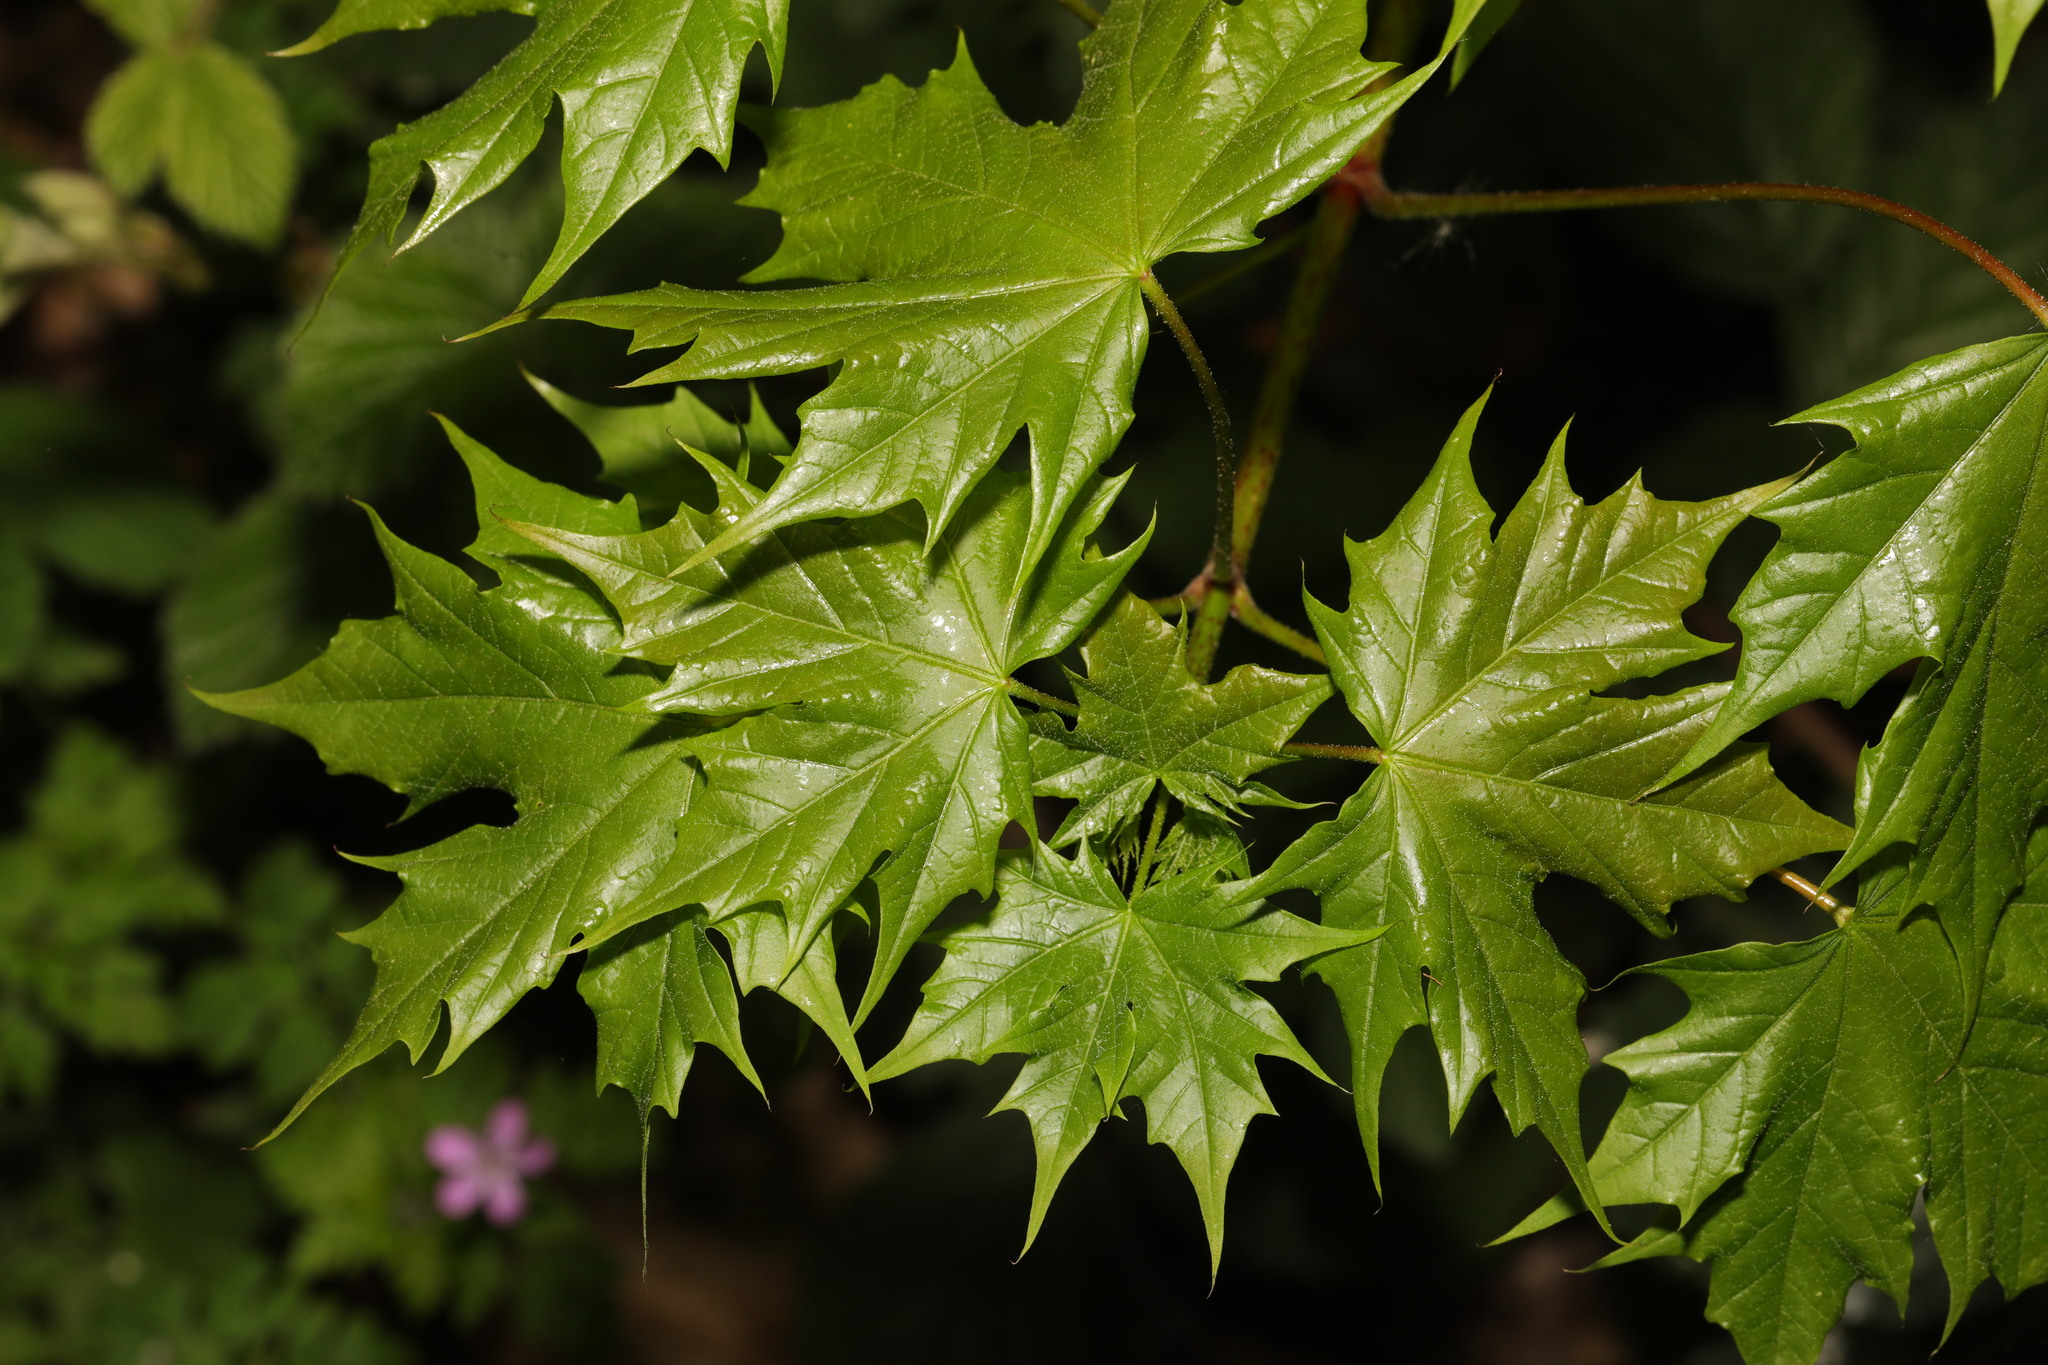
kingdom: Plantae
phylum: Tracheophyta
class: Magnoliopsida
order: Sapindales
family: Sapindaceae
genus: Acer
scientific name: Acer platanoides
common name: Norway maple
